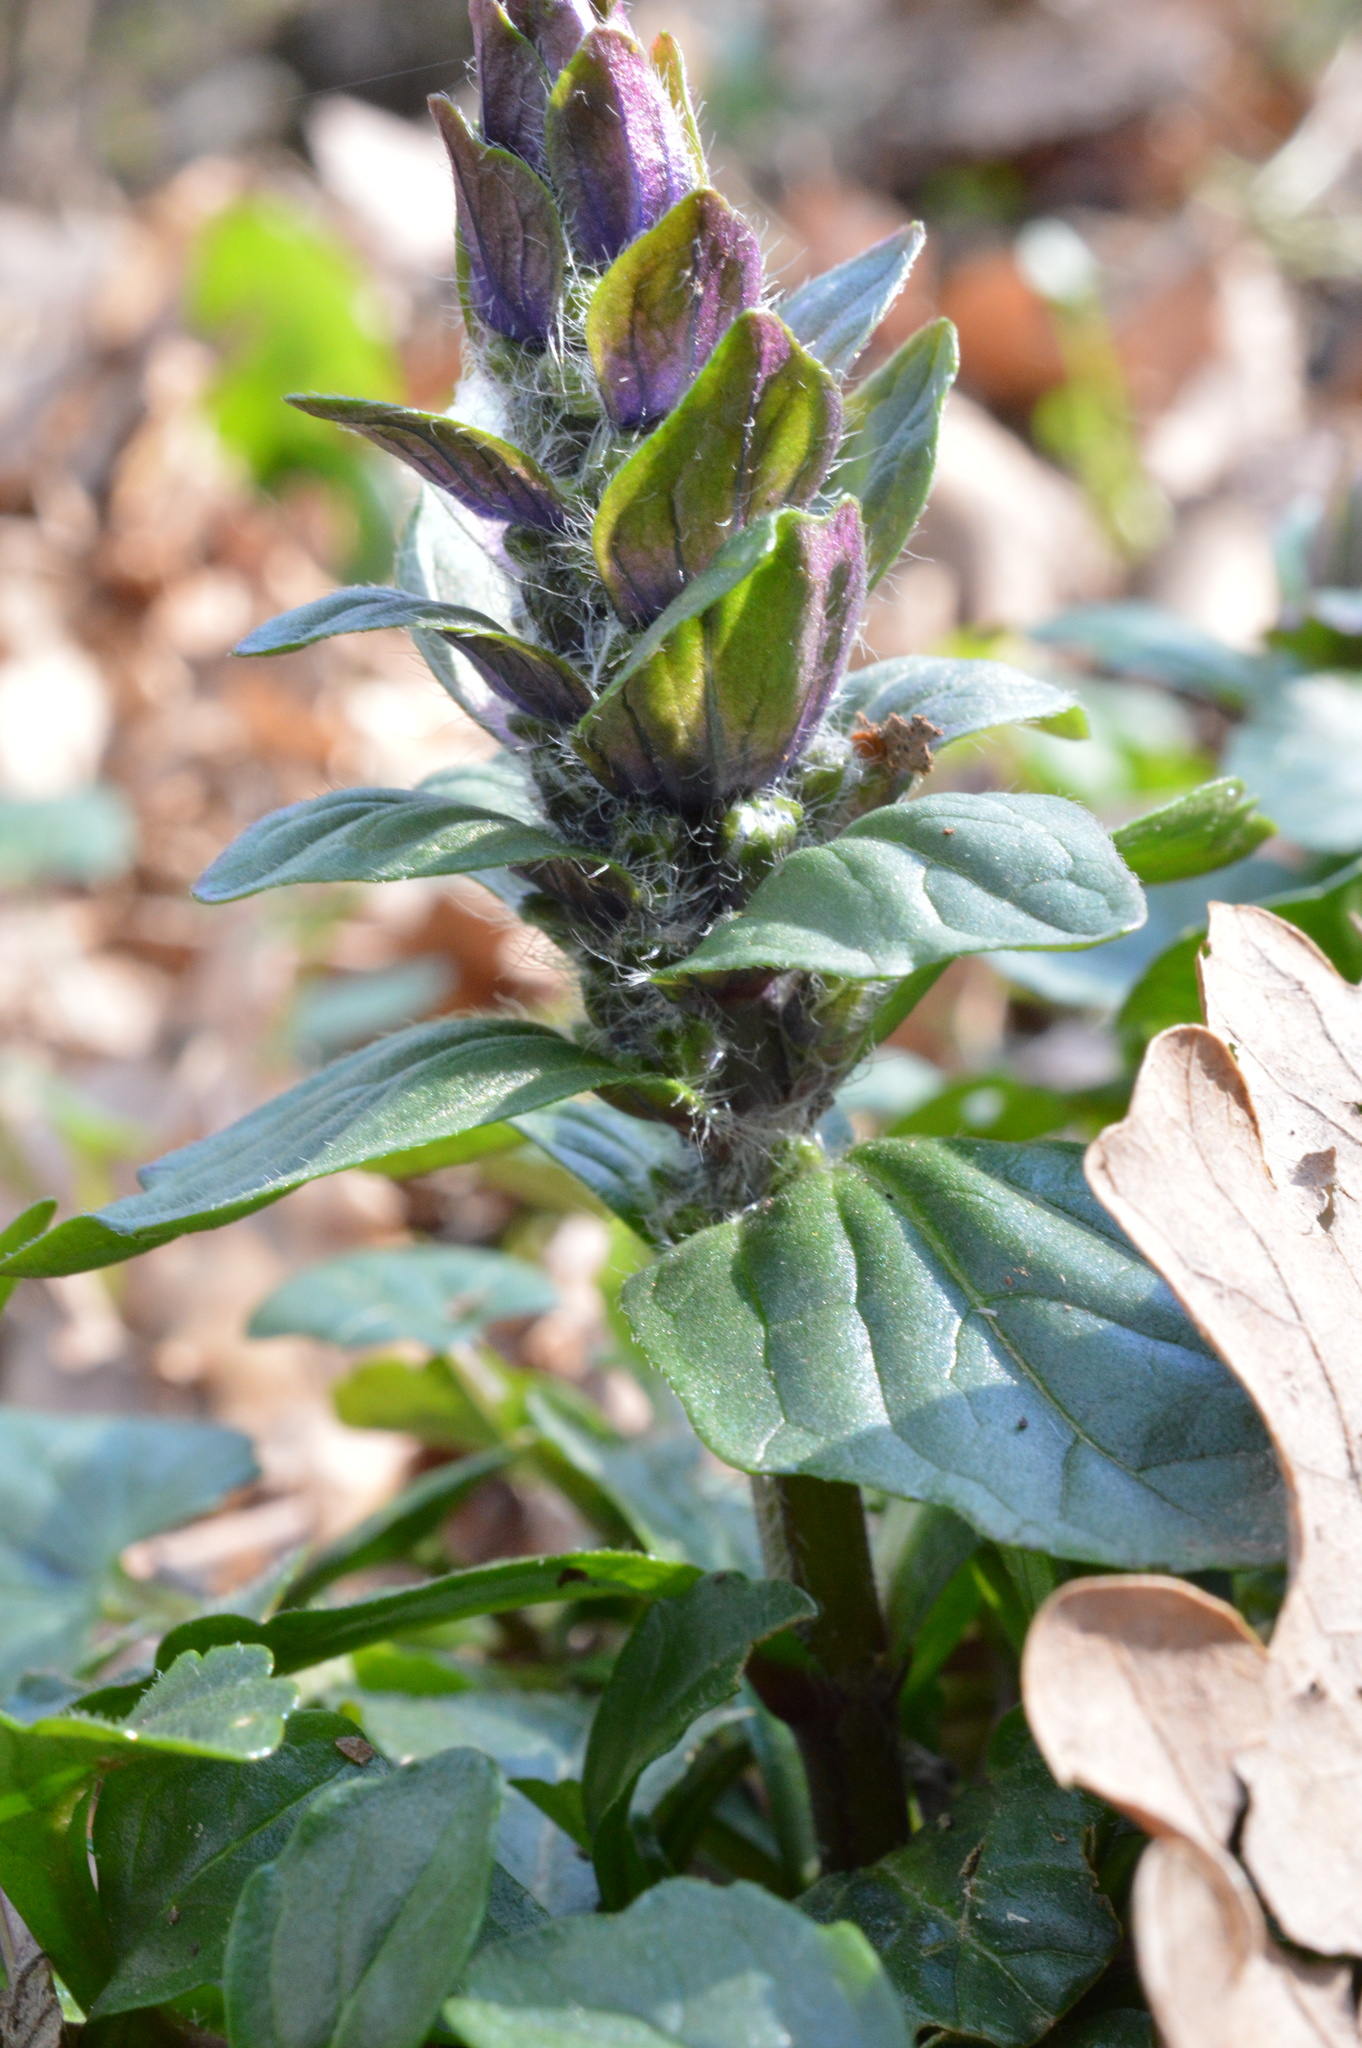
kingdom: Plantae
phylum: Tracheophyta
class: Magnoliopsida
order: Lamiales
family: Lamiaceae
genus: Ajuga
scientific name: Ajuga reptans
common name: Bugle
